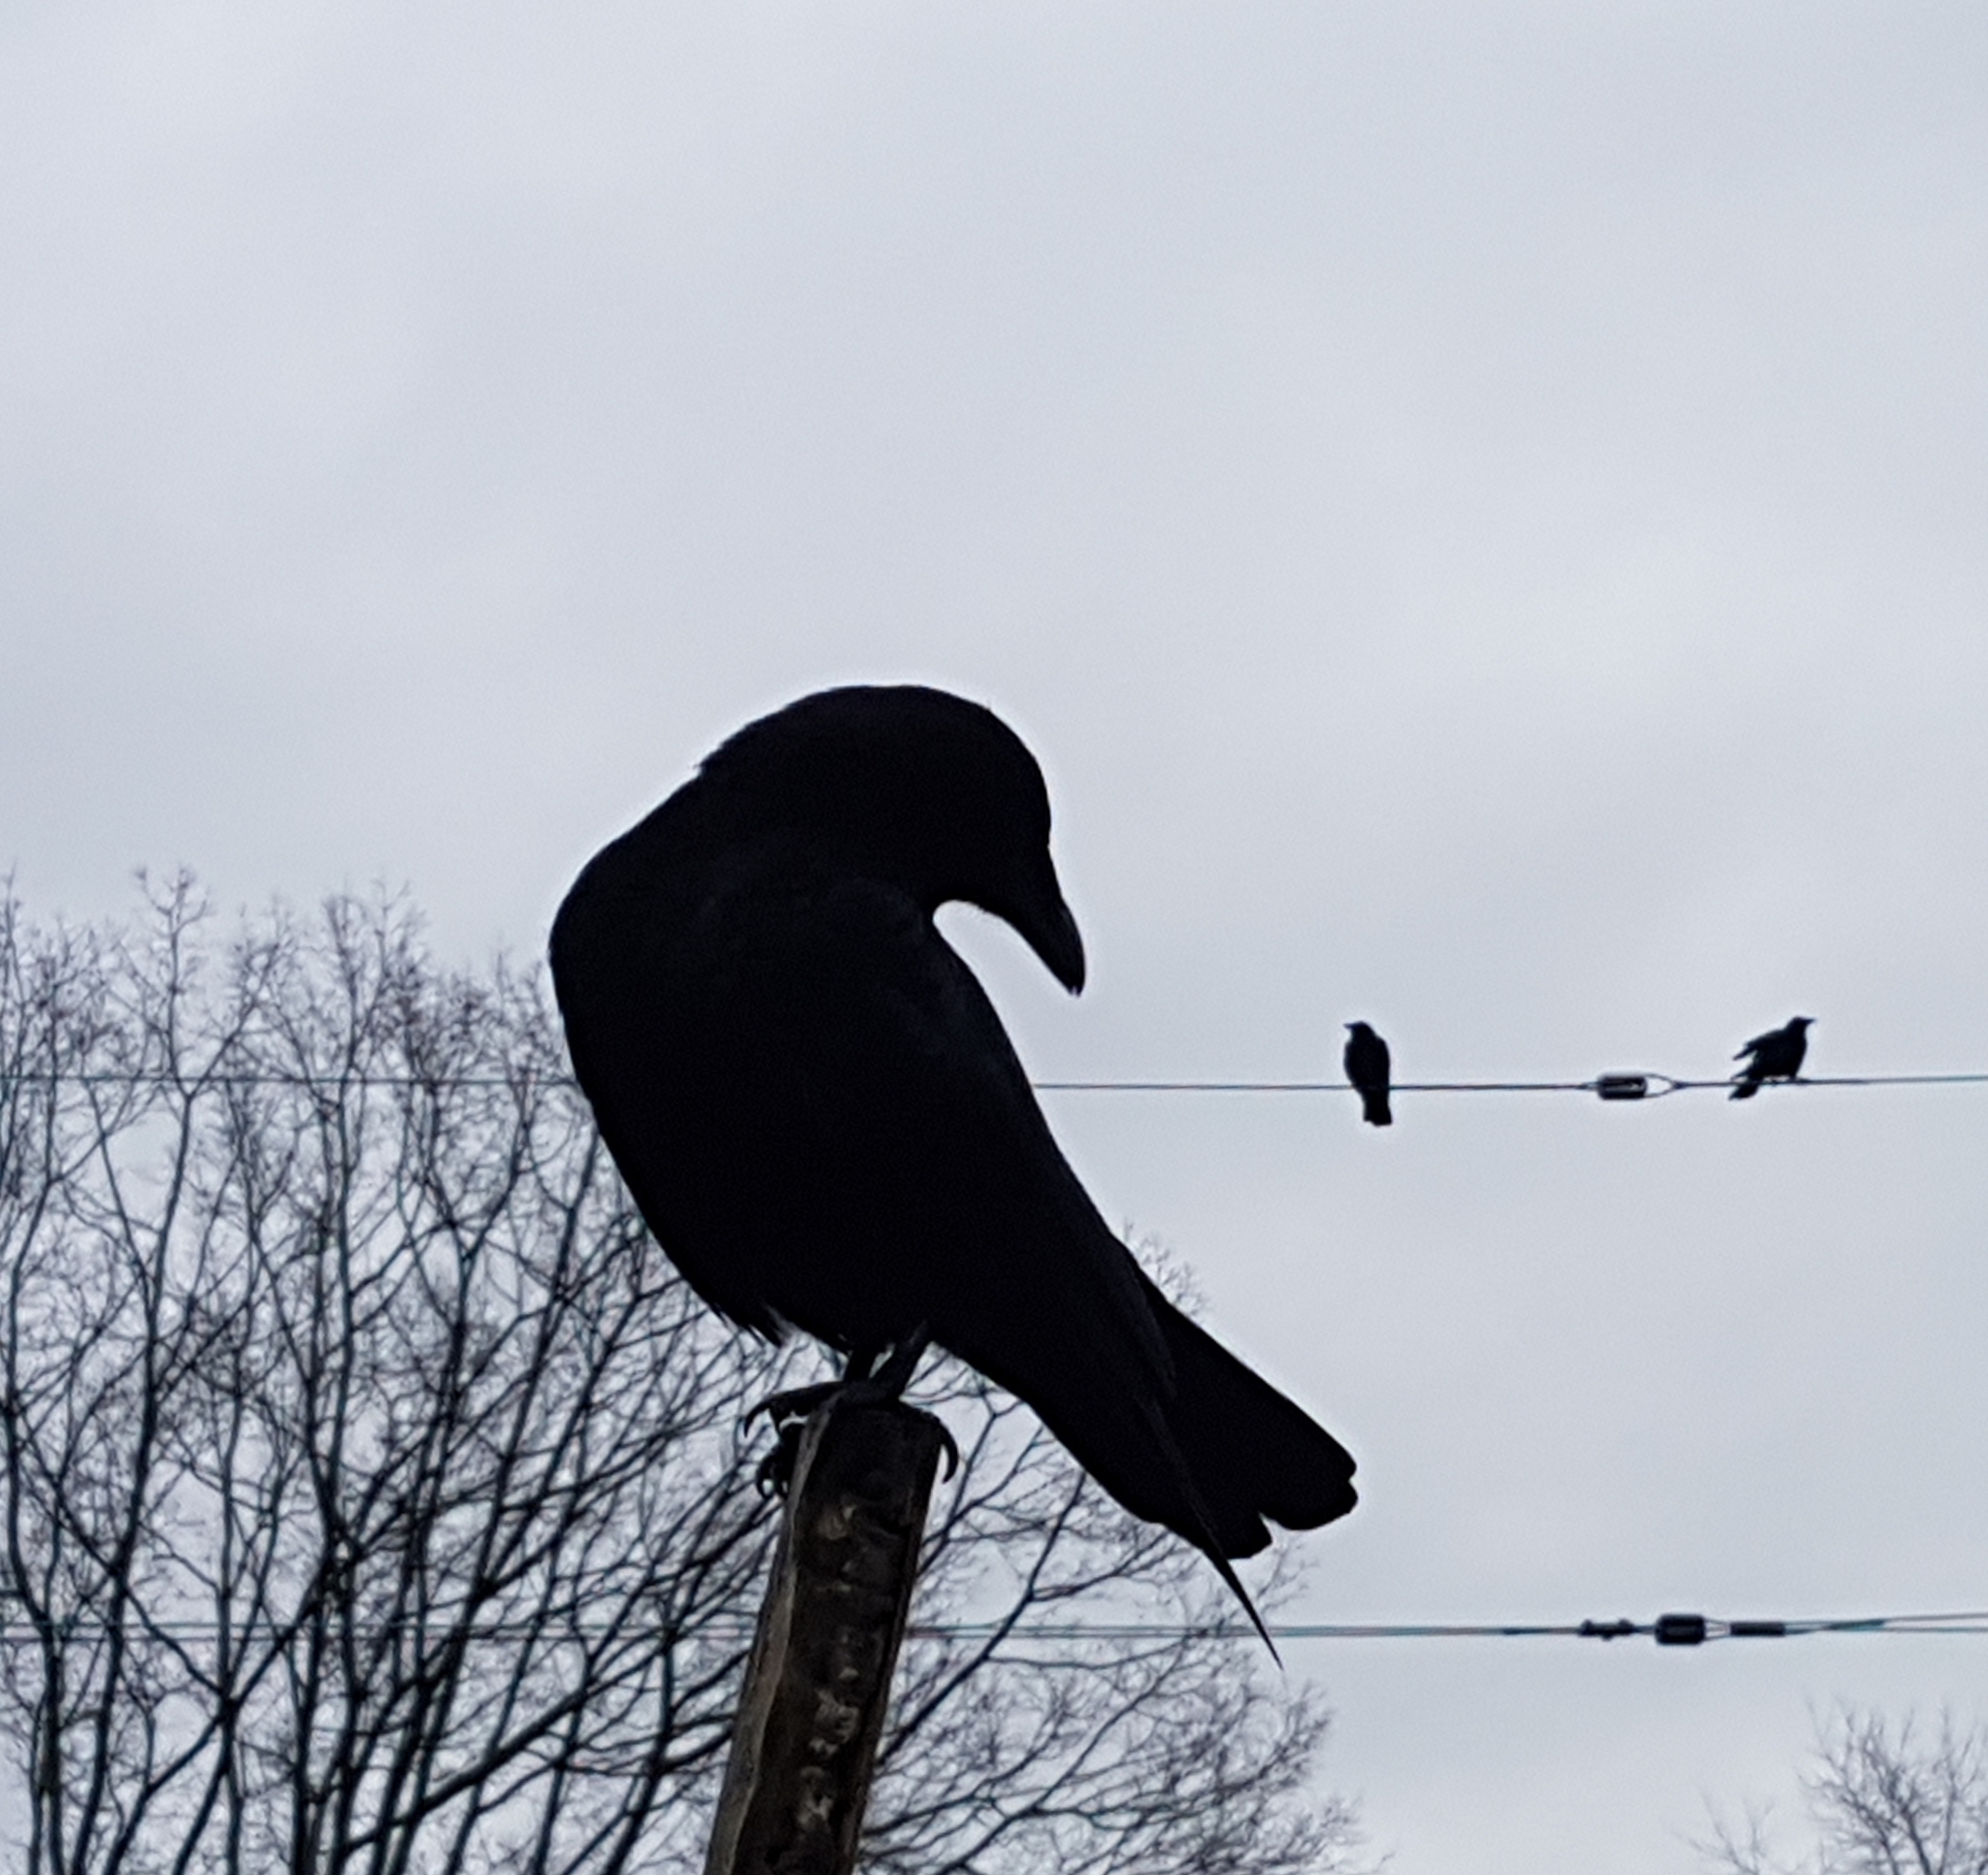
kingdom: Animalia
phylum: Chordata
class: Aves
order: Passeriformes
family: Corvidae
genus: Corvus
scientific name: Corvus brachyrhynchos
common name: American crow
